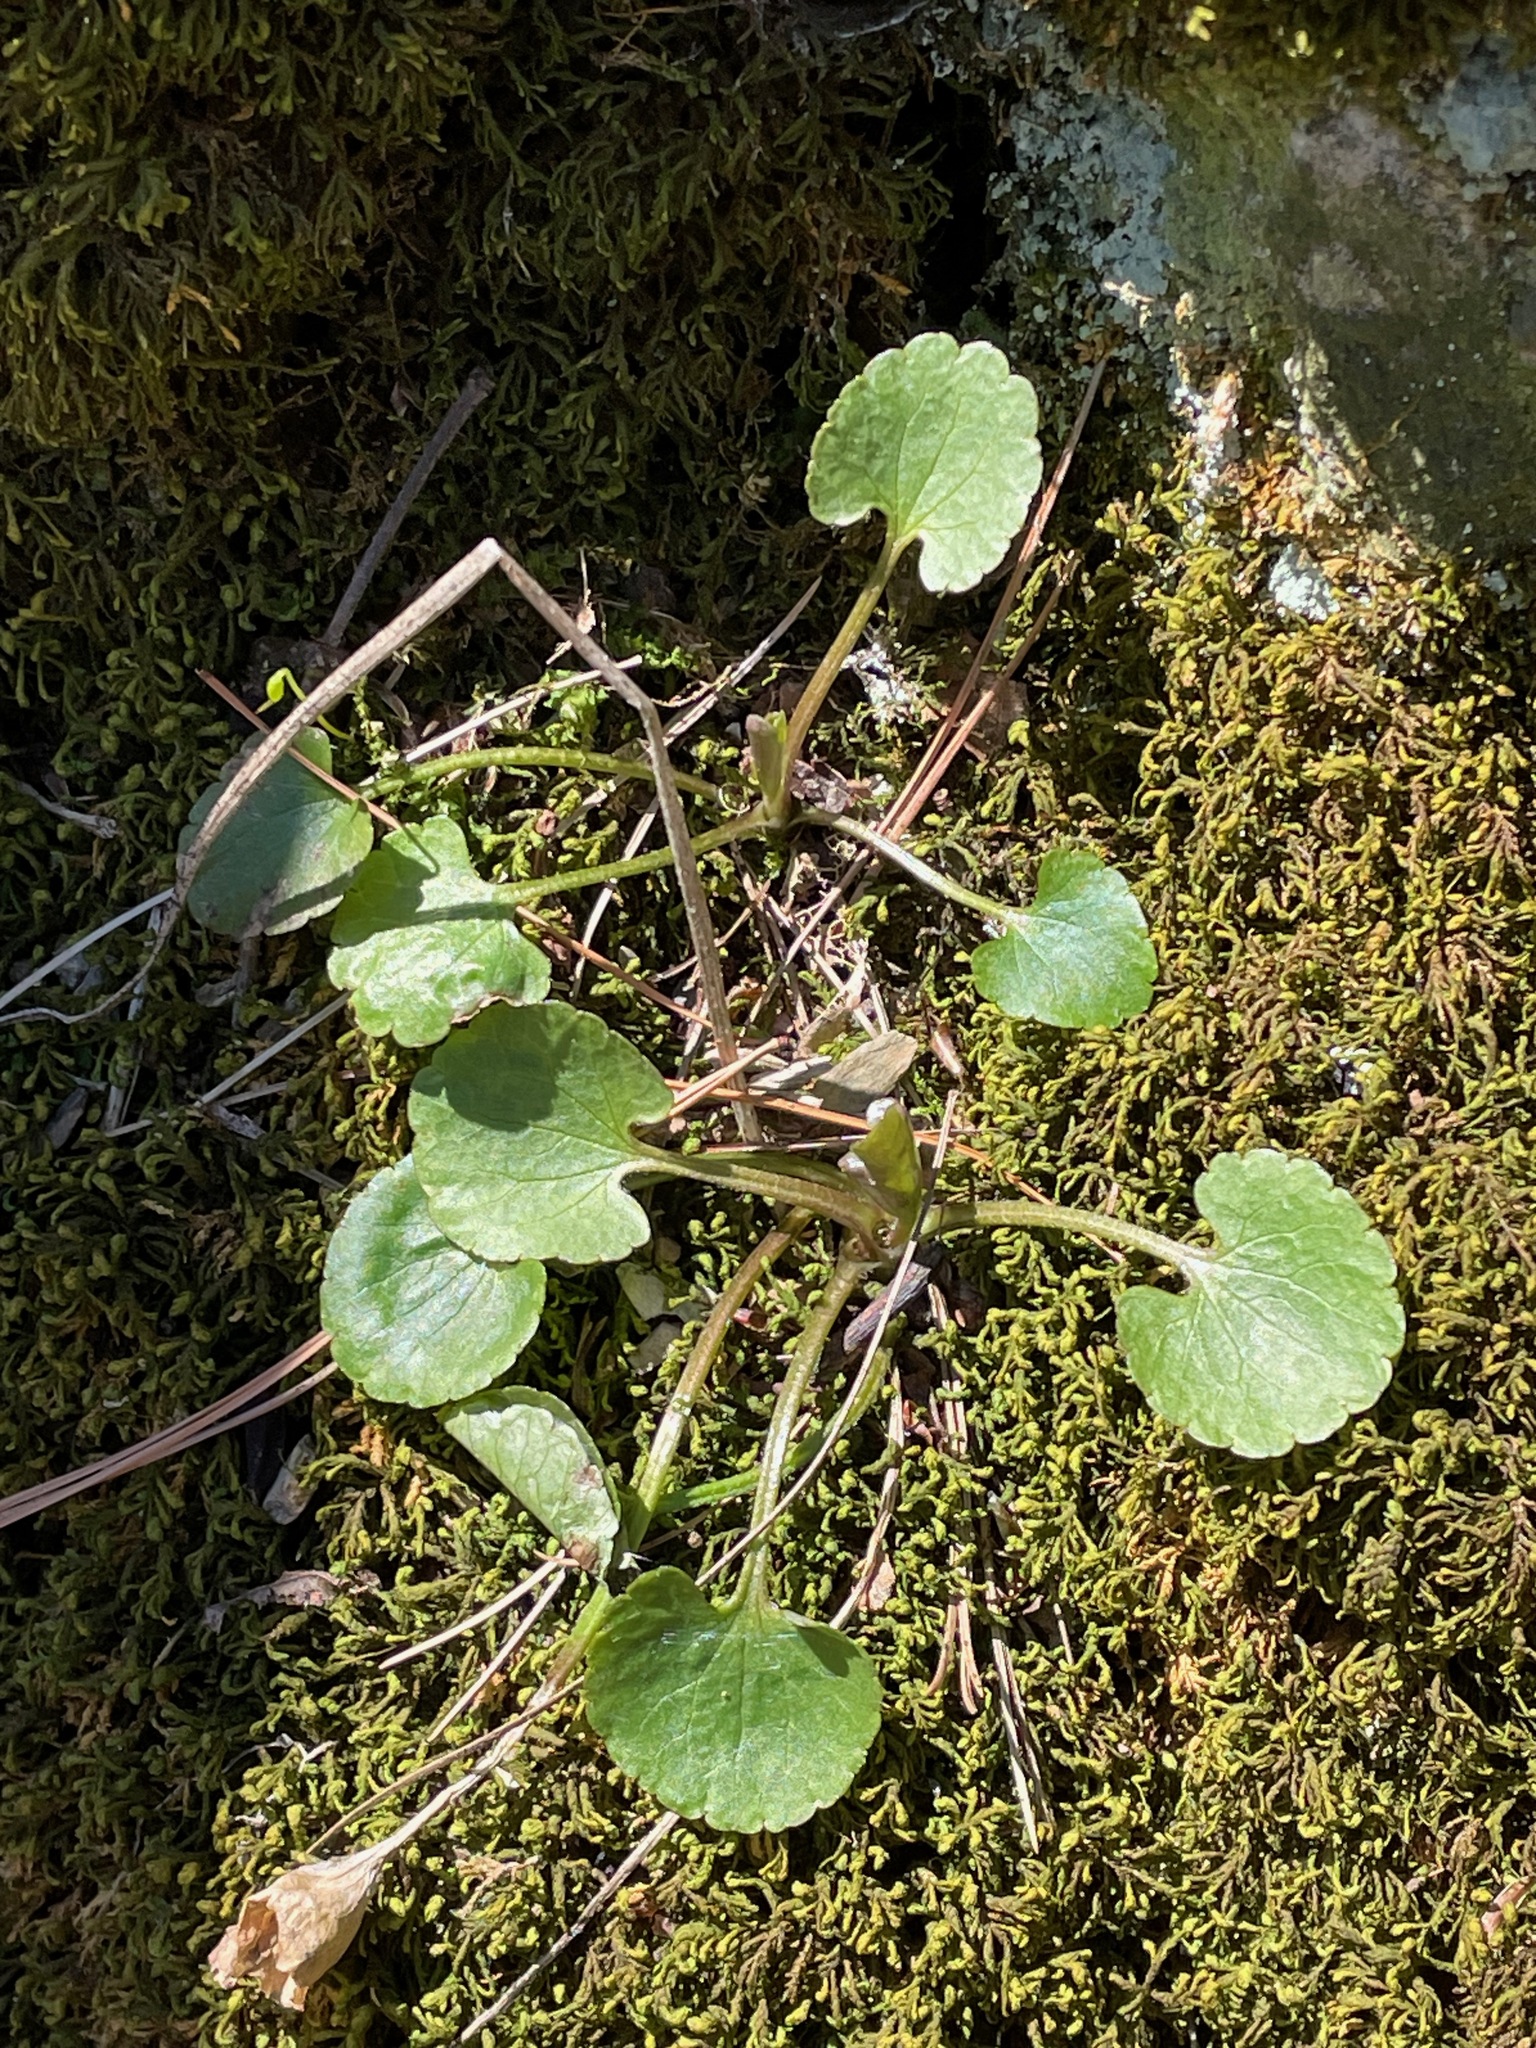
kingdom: Plantae
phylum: Tracheophyta
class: Magnoliopsida
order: Ranunculales
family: Ranunculaceae
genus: Ranunculus
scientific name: Ranunculus abortivus
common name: Early wood buttercup
